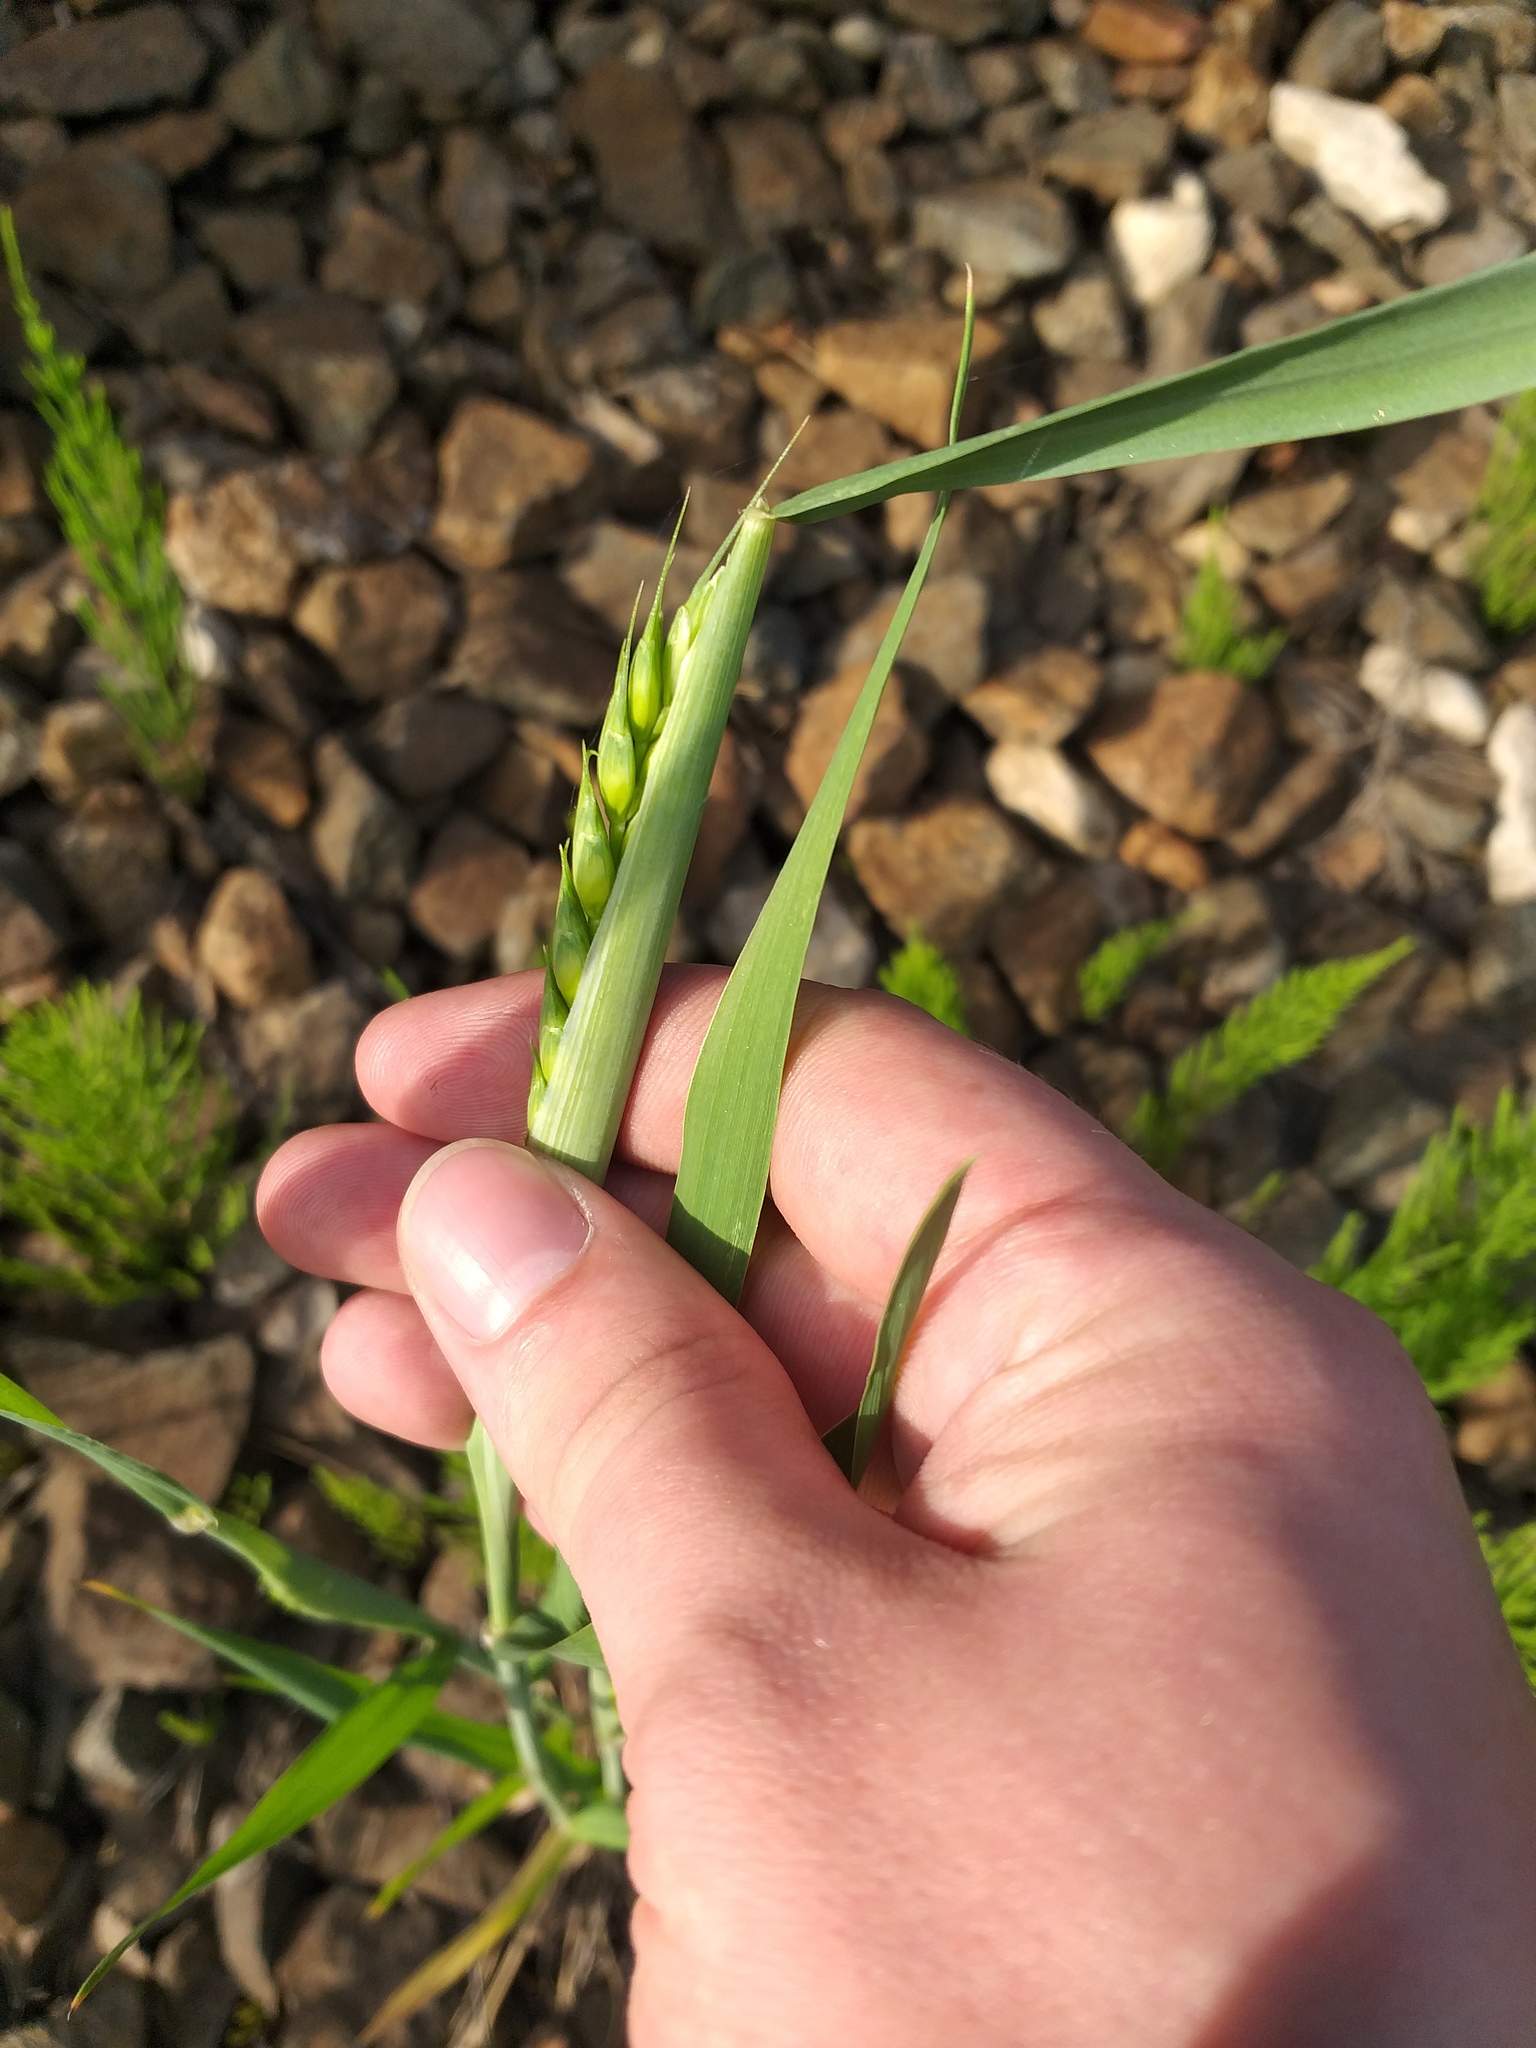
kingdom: Plantae
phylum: Tracheophyta
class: Liliopsida
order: Poales
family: Poaceae
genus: Triticum
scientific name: Triticum aestivum
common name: Common wheat
